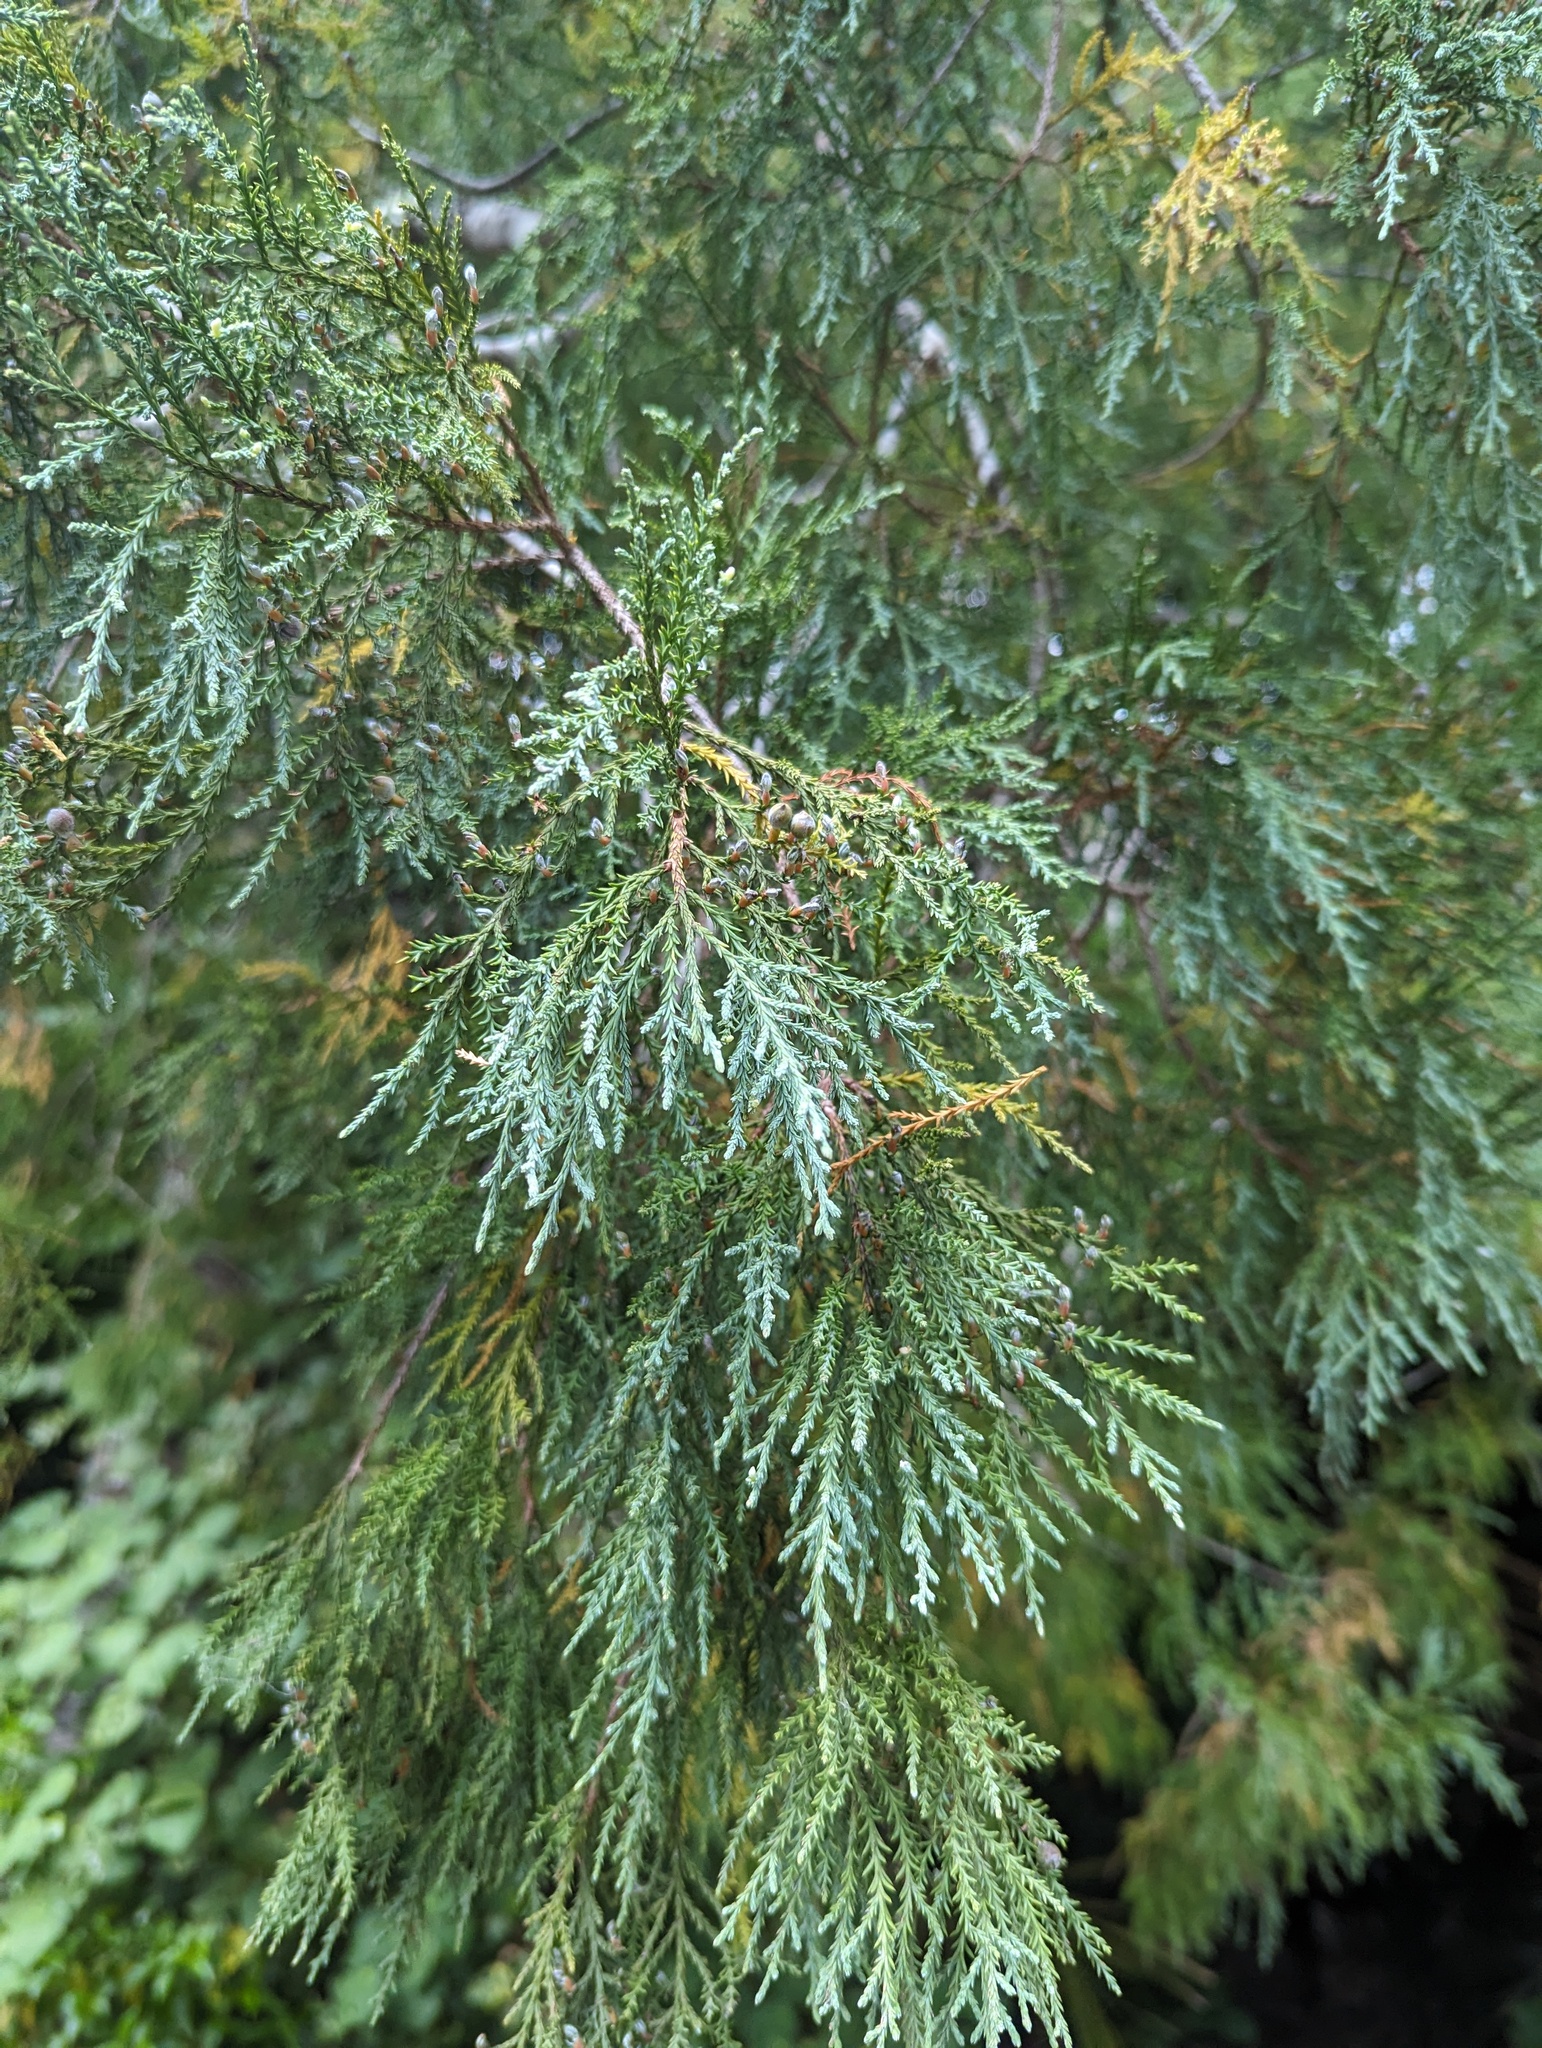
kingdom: Plantae
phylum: Tracheophyta
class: Pinopsida
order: Pinales
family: Podocarpaceae
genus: Dacrycarpus
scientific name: Dacrycarpus dacrydioides
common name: White pine
